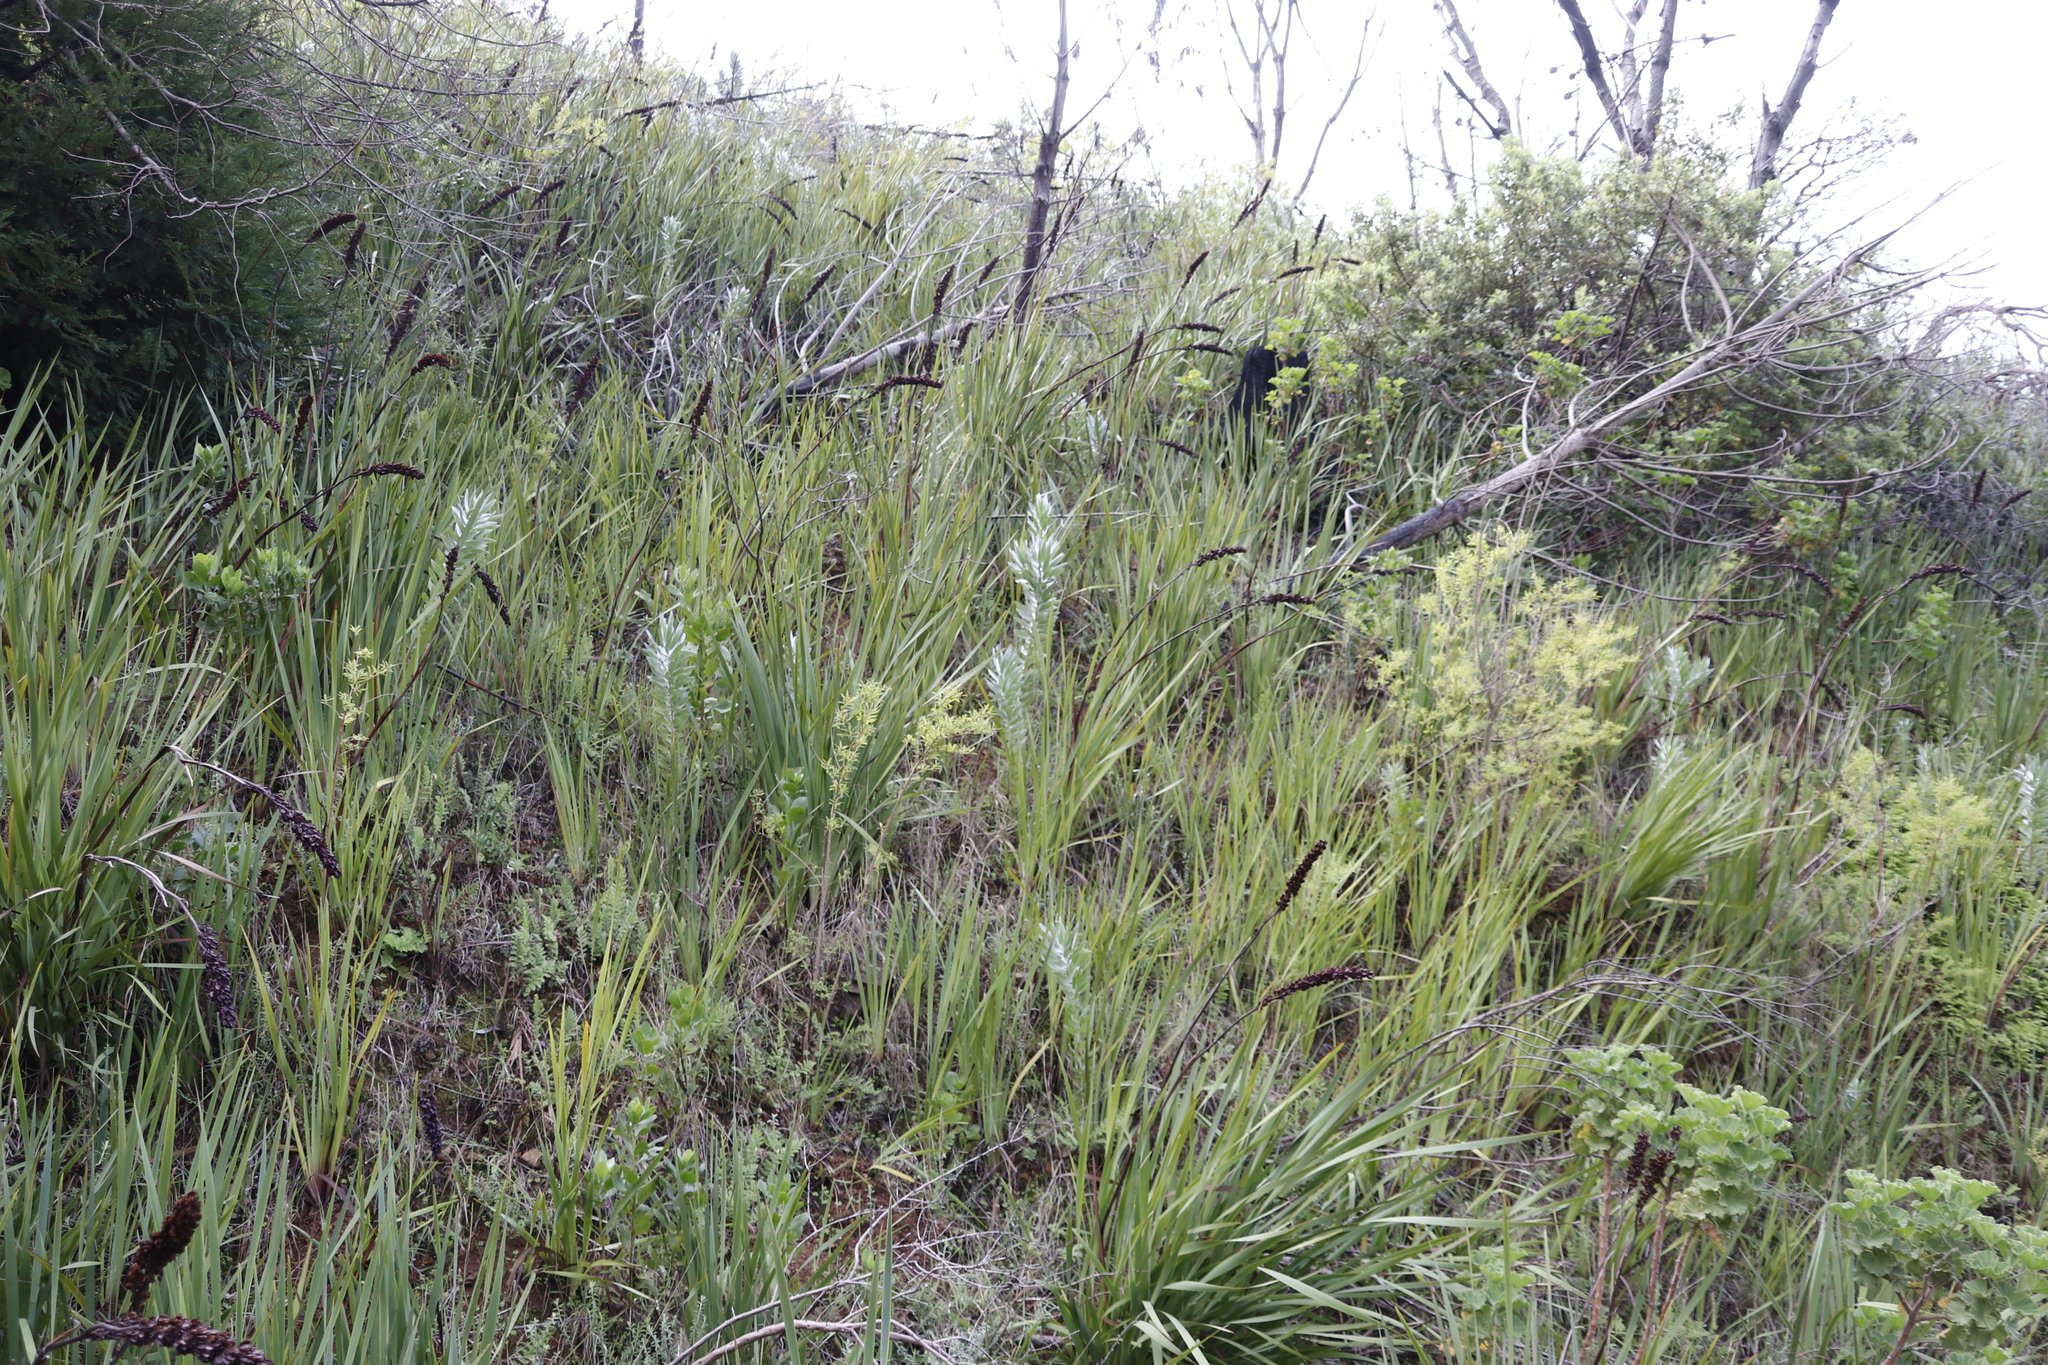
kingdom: Plantae
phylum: Tracheophyta
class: Magnoliopsida
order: Proteales
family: Proteaceae
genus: Leucadendron
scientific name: Leucadendron argenteum
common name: Cape silver tree
